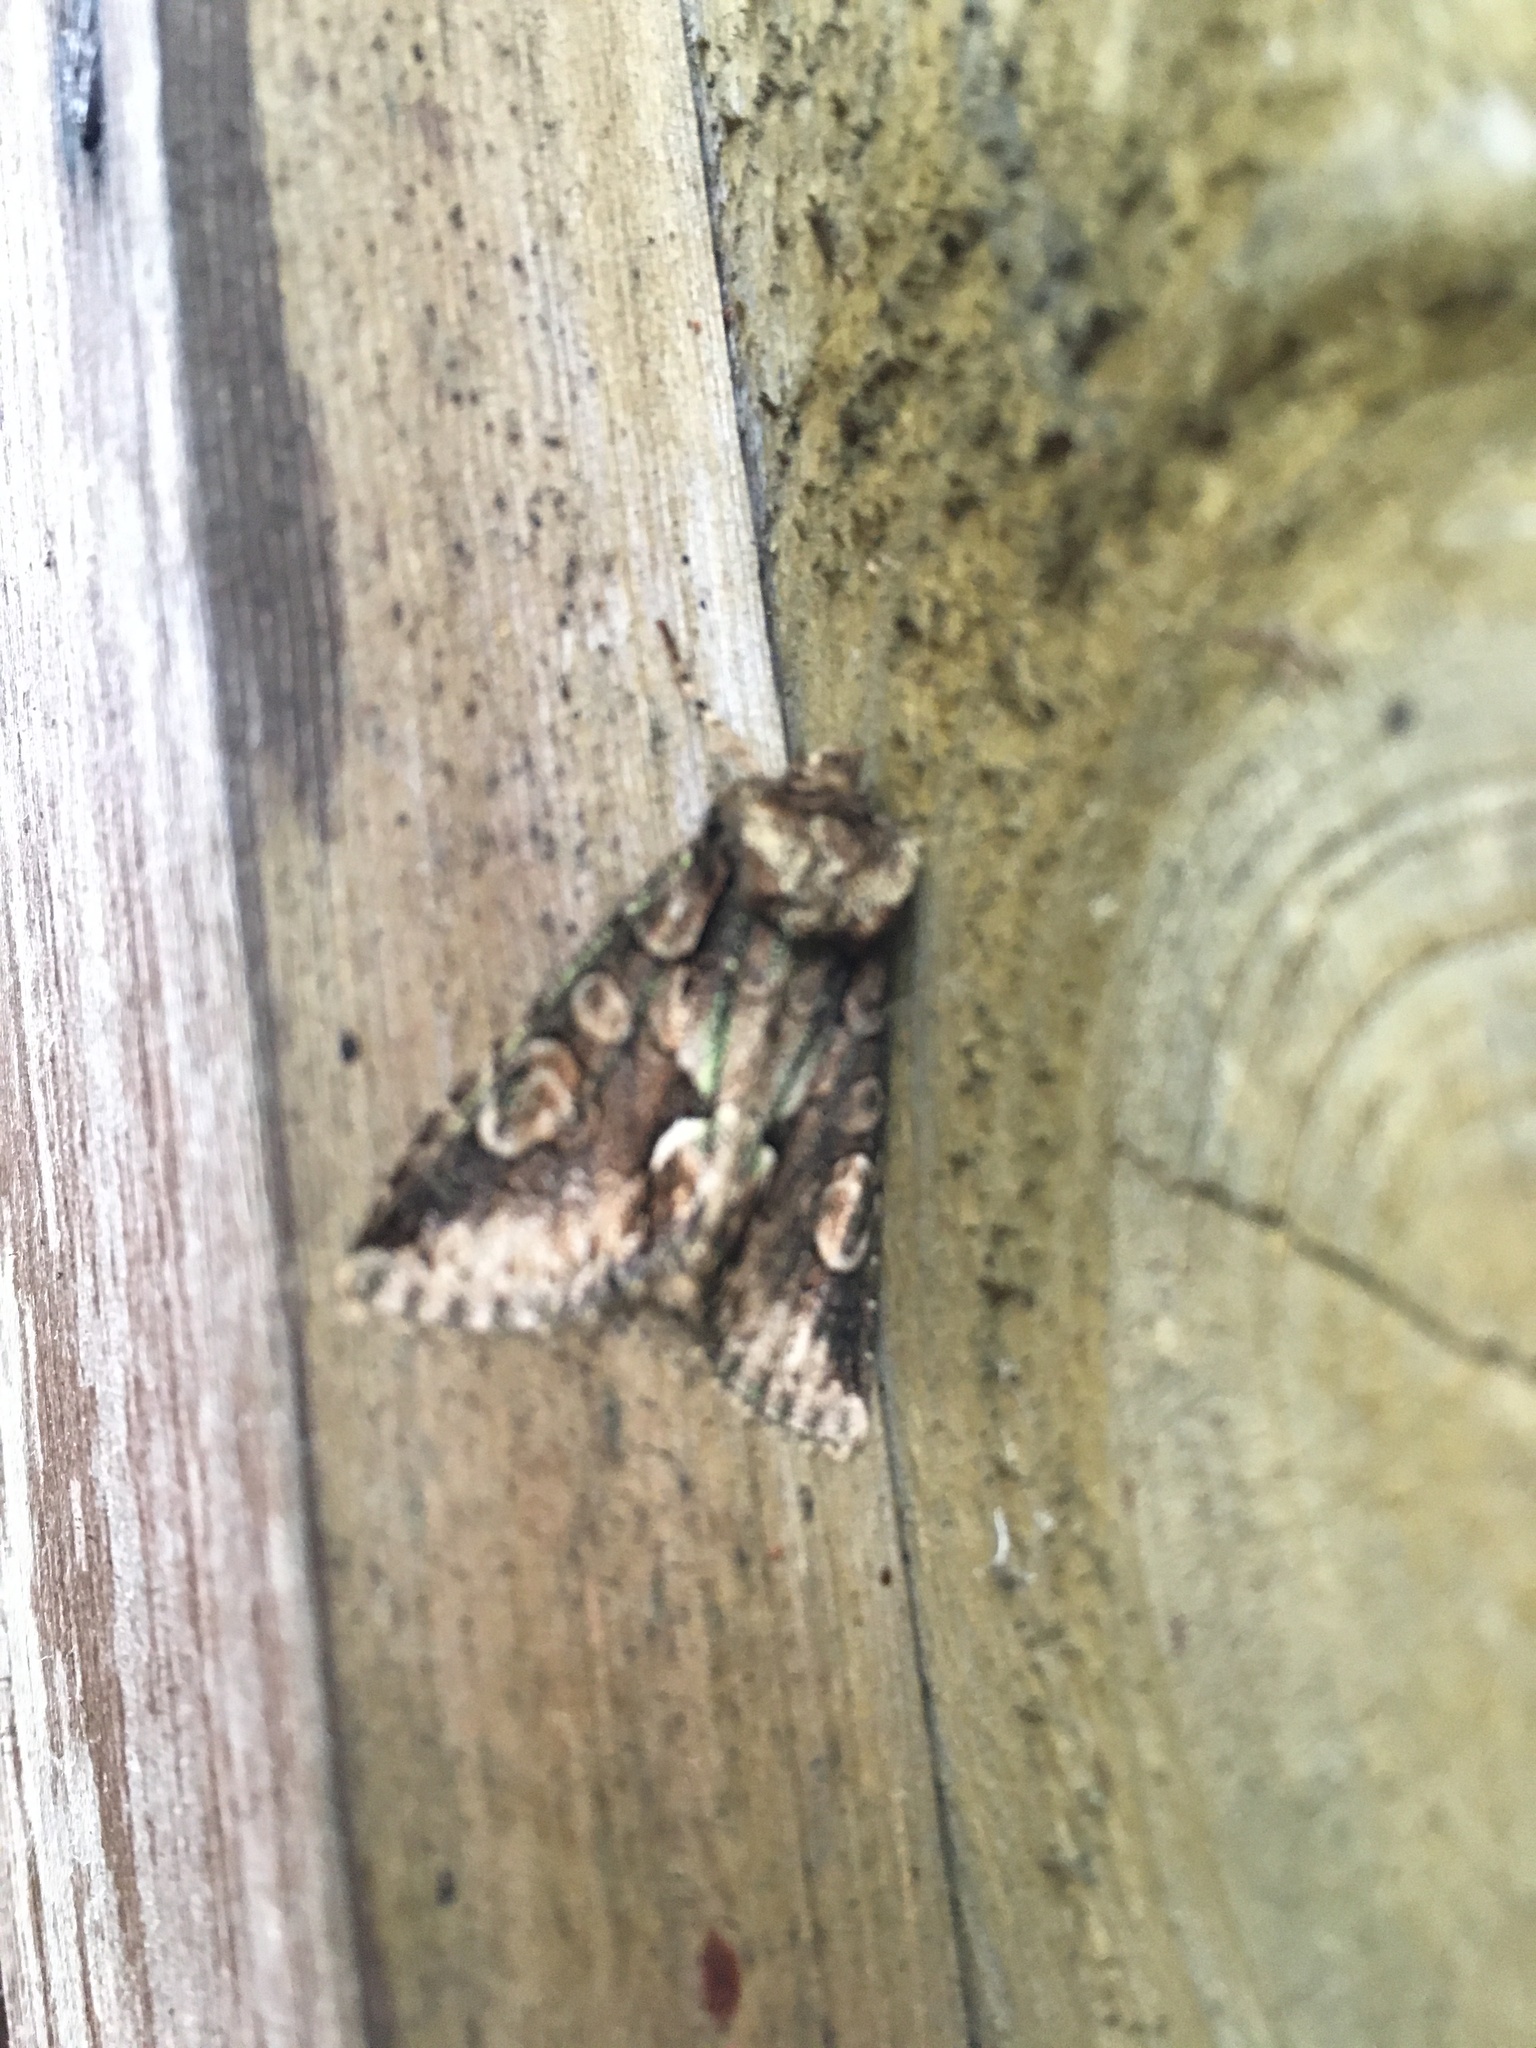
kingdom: Animalia
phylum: Arthropoda
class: Insecta
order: Lepidoptera
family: Noctuidae
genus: Allophyes
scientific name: Allophyes oxyacanthae
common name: Green-brindled crescent
